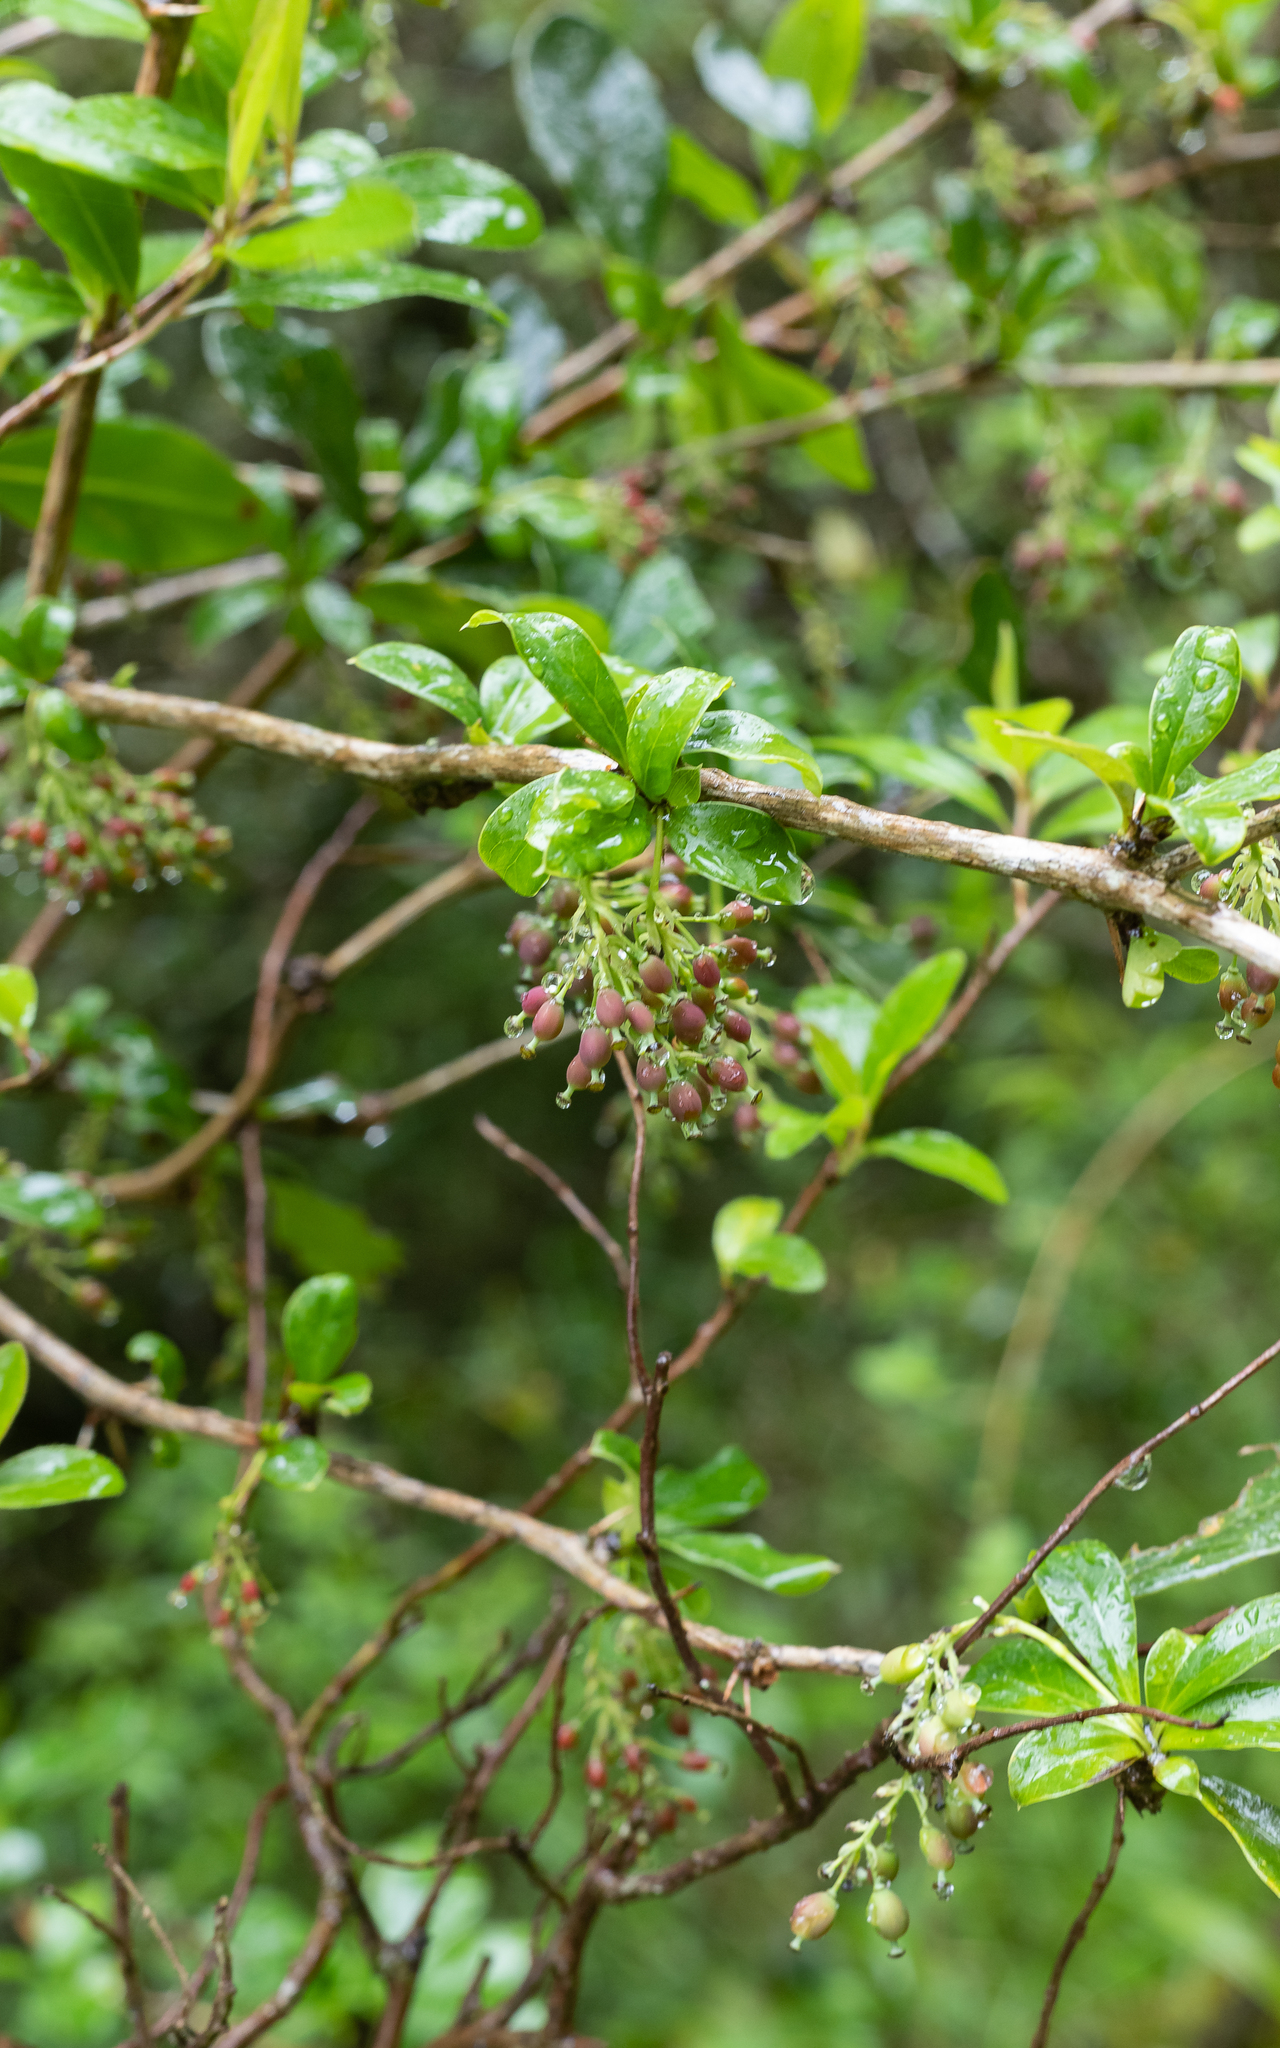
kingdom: Plantae
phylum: Tracheophyta
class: Magnoliopsida
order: Ranunculales
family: Berberidaceae
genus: Berberis
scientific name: Berberis laurina
